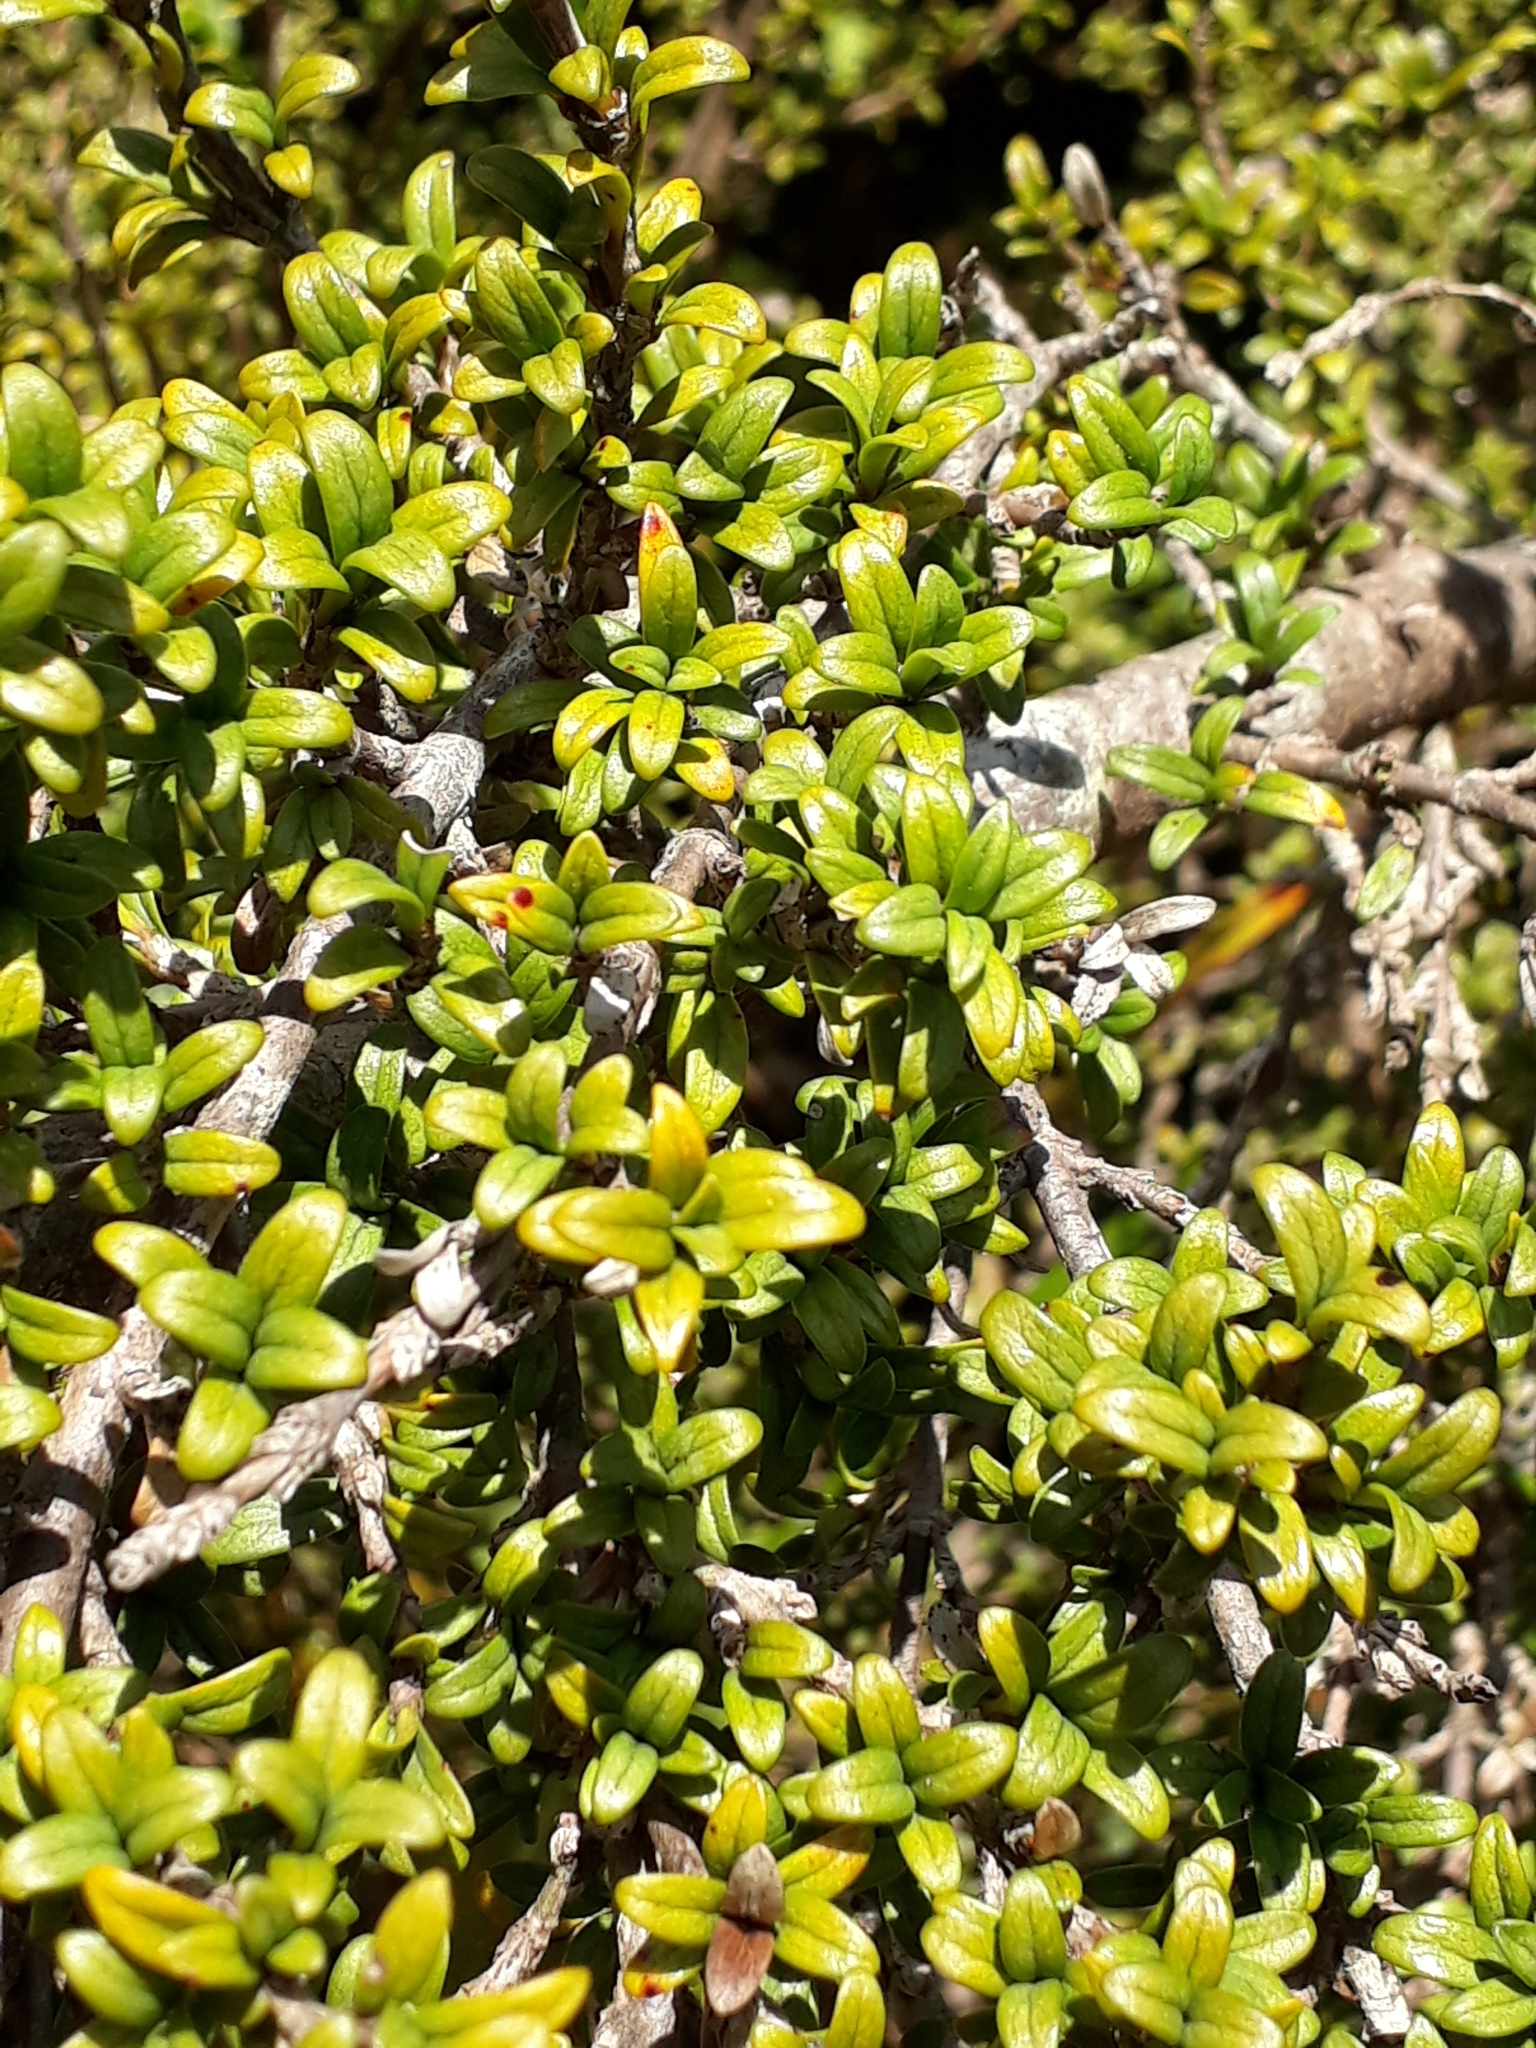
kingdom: Plantae
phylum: Tracheophyta
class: Magnoliopsida
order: Gentianales
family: Rubiaceae
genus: Coprosma
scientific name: Coprosma pseudocuneata
